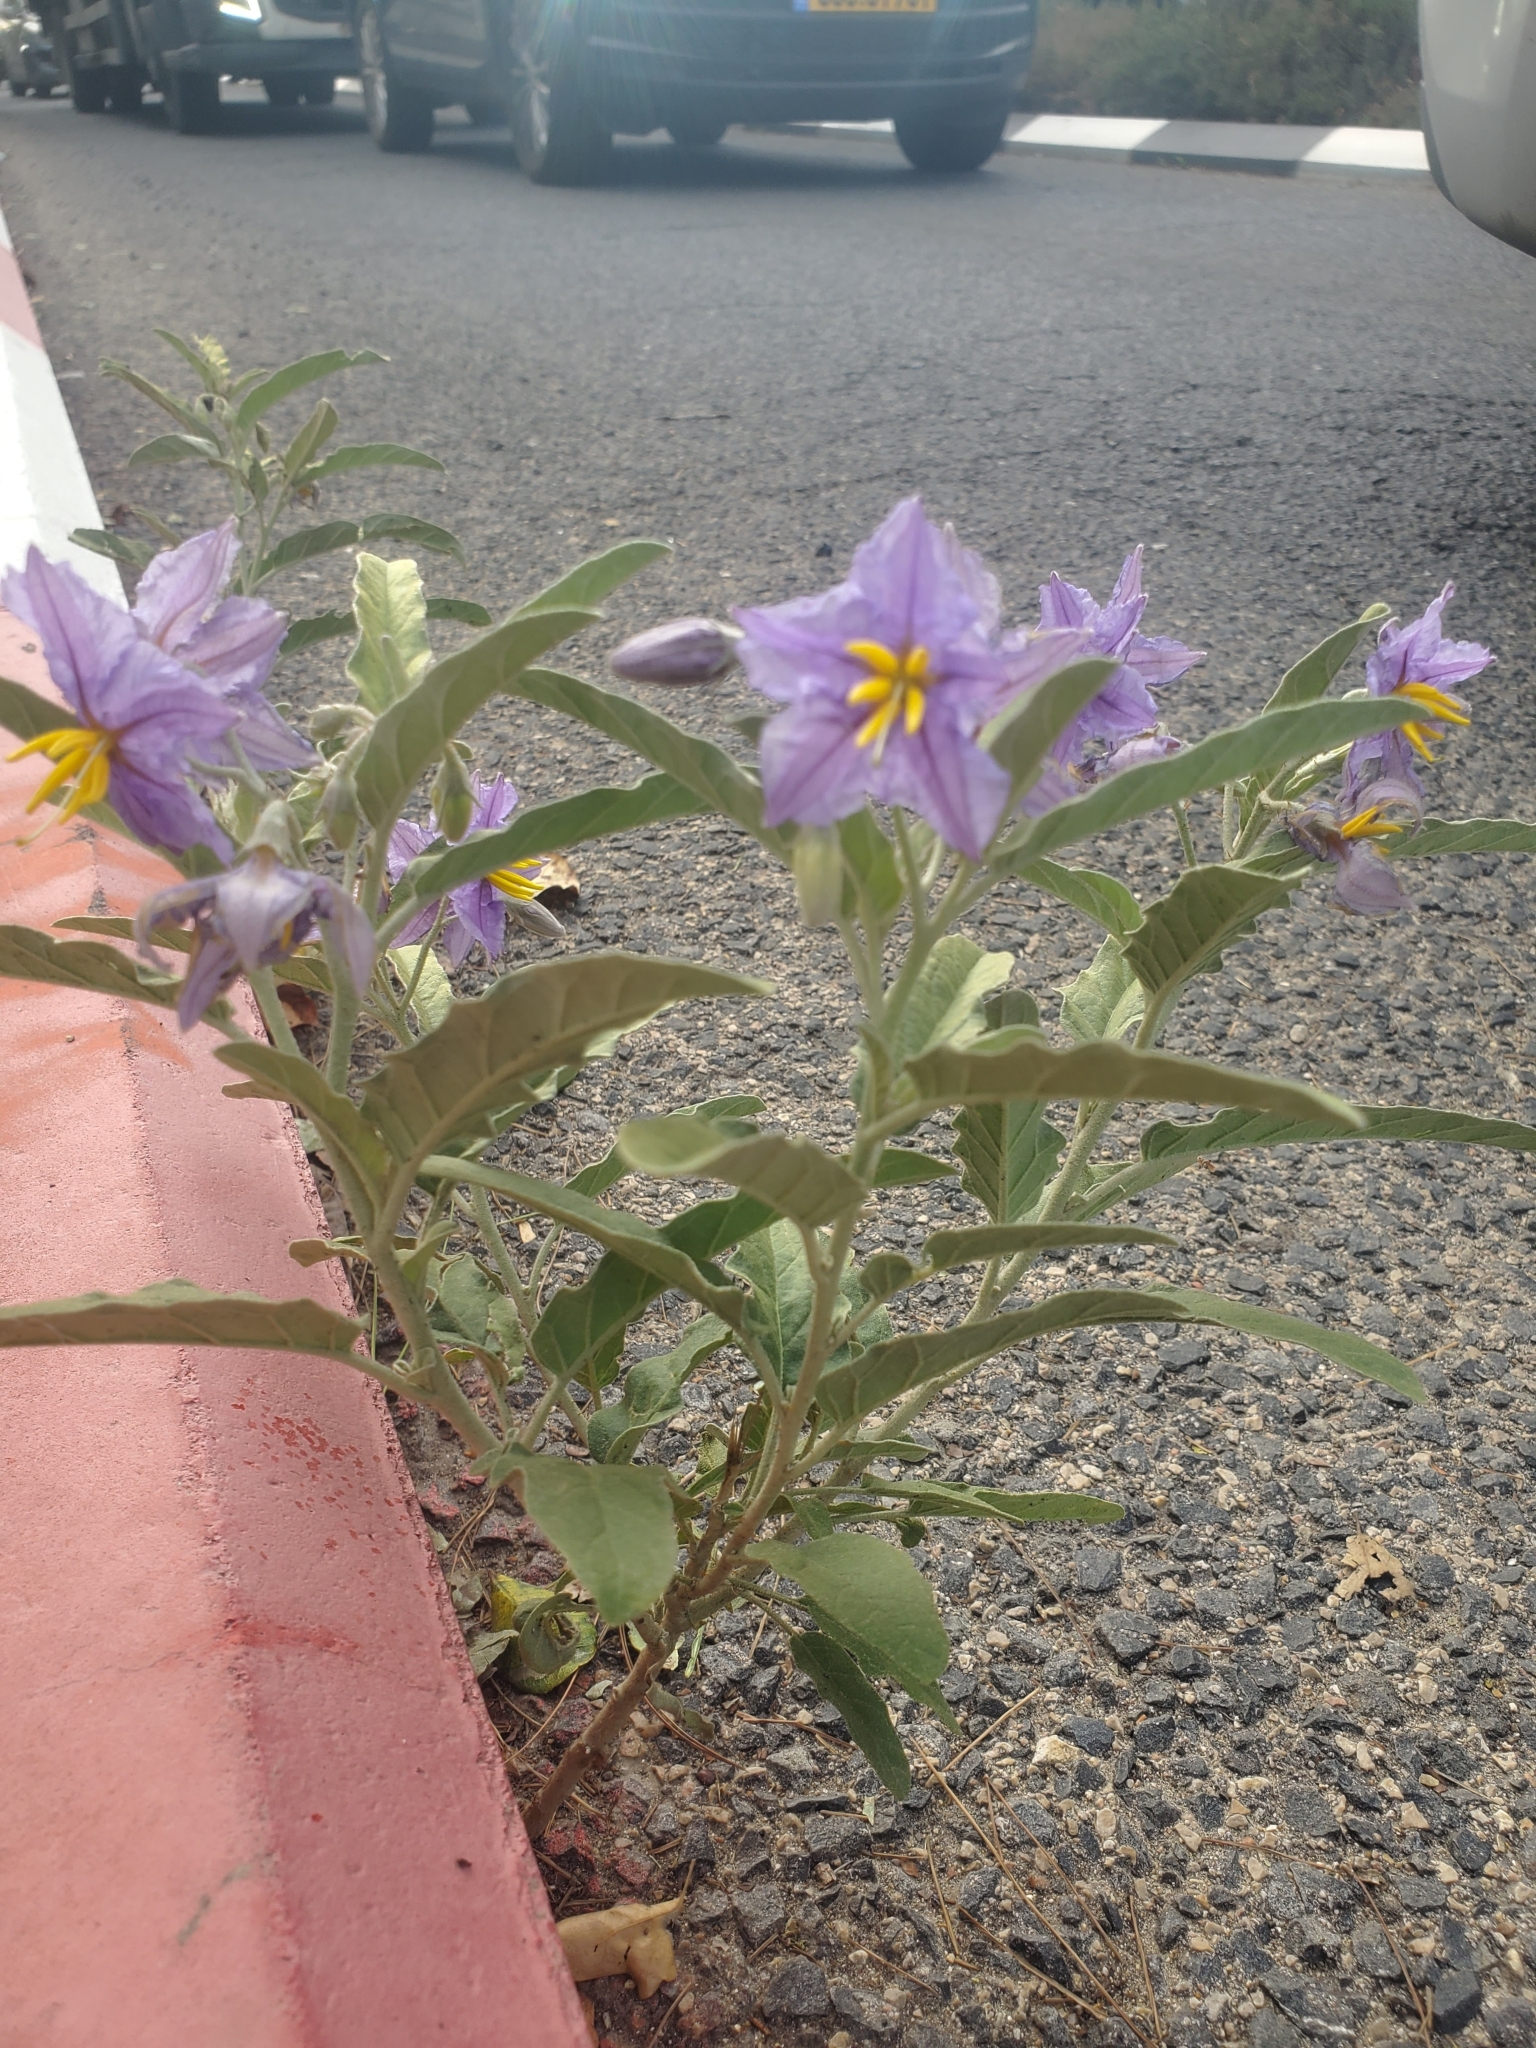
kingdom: Plantae
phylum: Tracheophyta
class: Magnoliopsida
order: Solanales
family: Solanaceae
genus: Solanum
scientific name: Solanum elaeagnifolium
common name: Silverleaf nightshade
